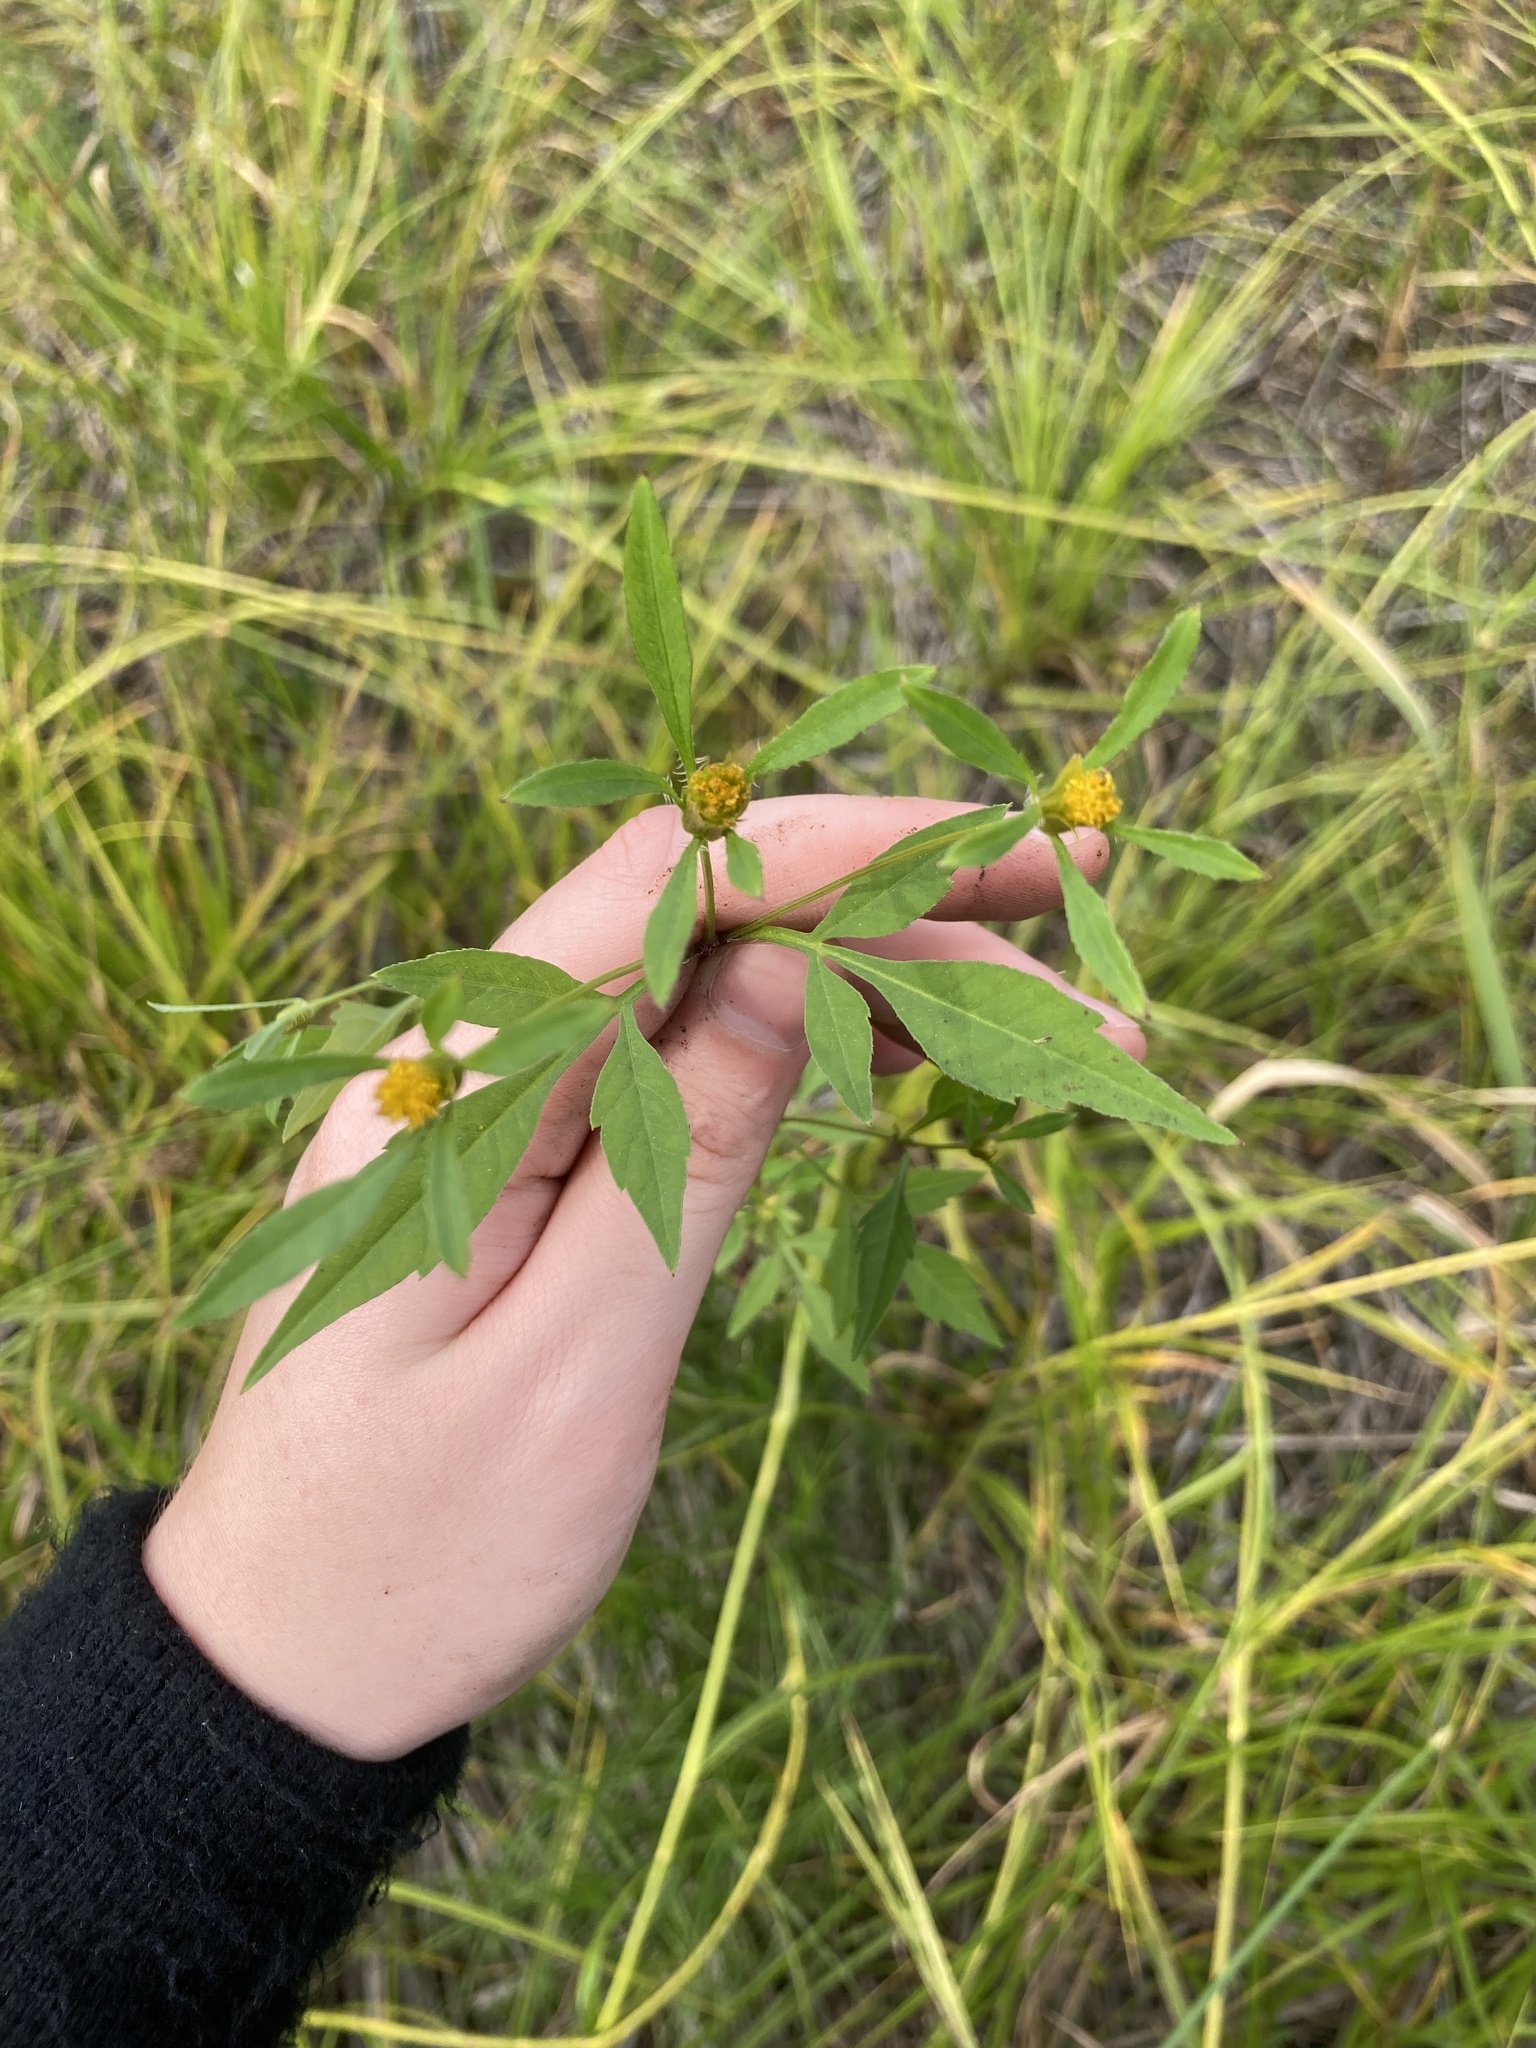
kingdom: Plantae
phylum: Tracheophyta
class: Magnoliopsida
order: Asterales
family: Asteraceae
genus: Bidens
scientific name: Bidens frondosa
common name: Beggarticks
